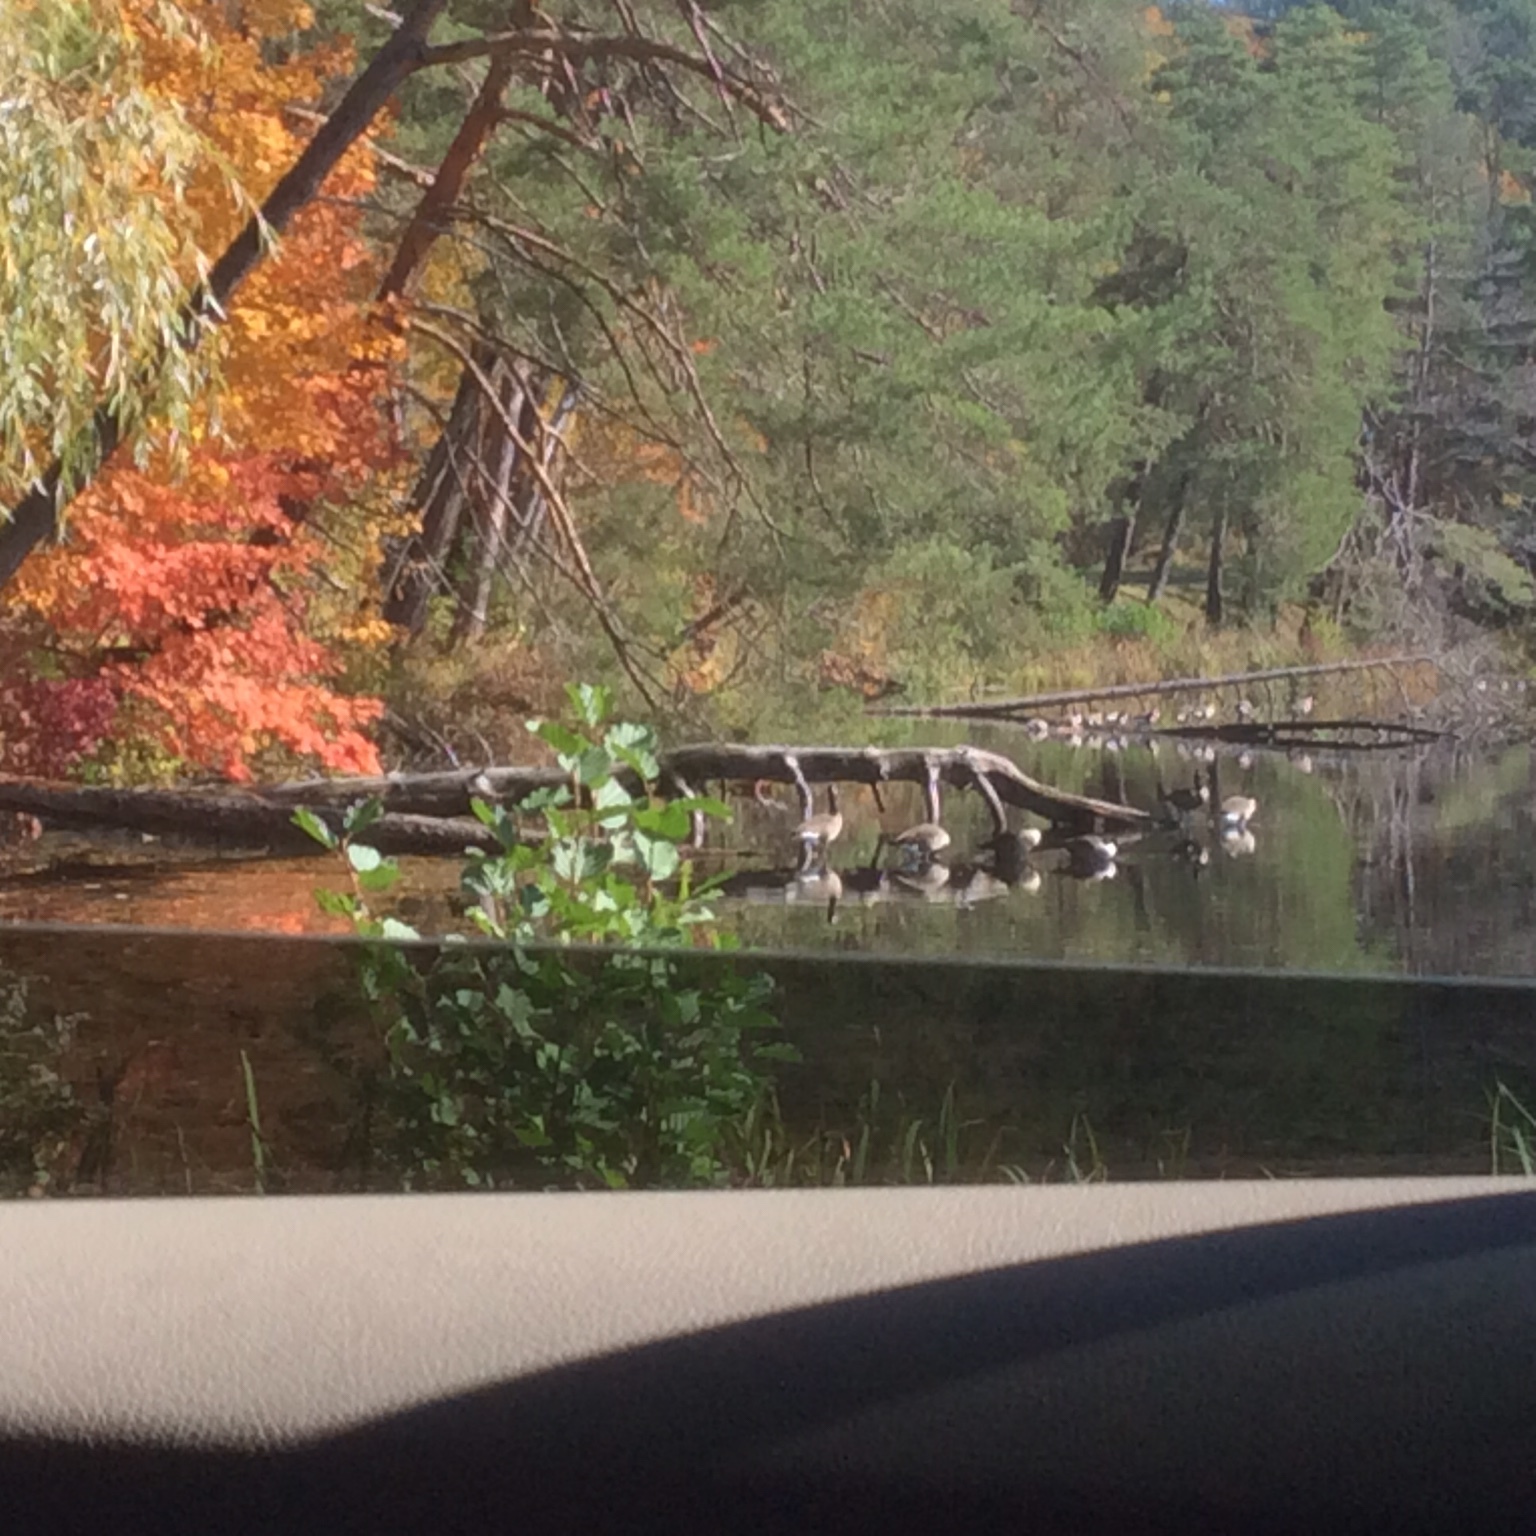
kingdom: Animalia
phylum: Chordata
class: Aves
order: Anseriformes
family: Anatidae
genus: Branta
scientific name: Branta canadensis
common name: Canada goose
